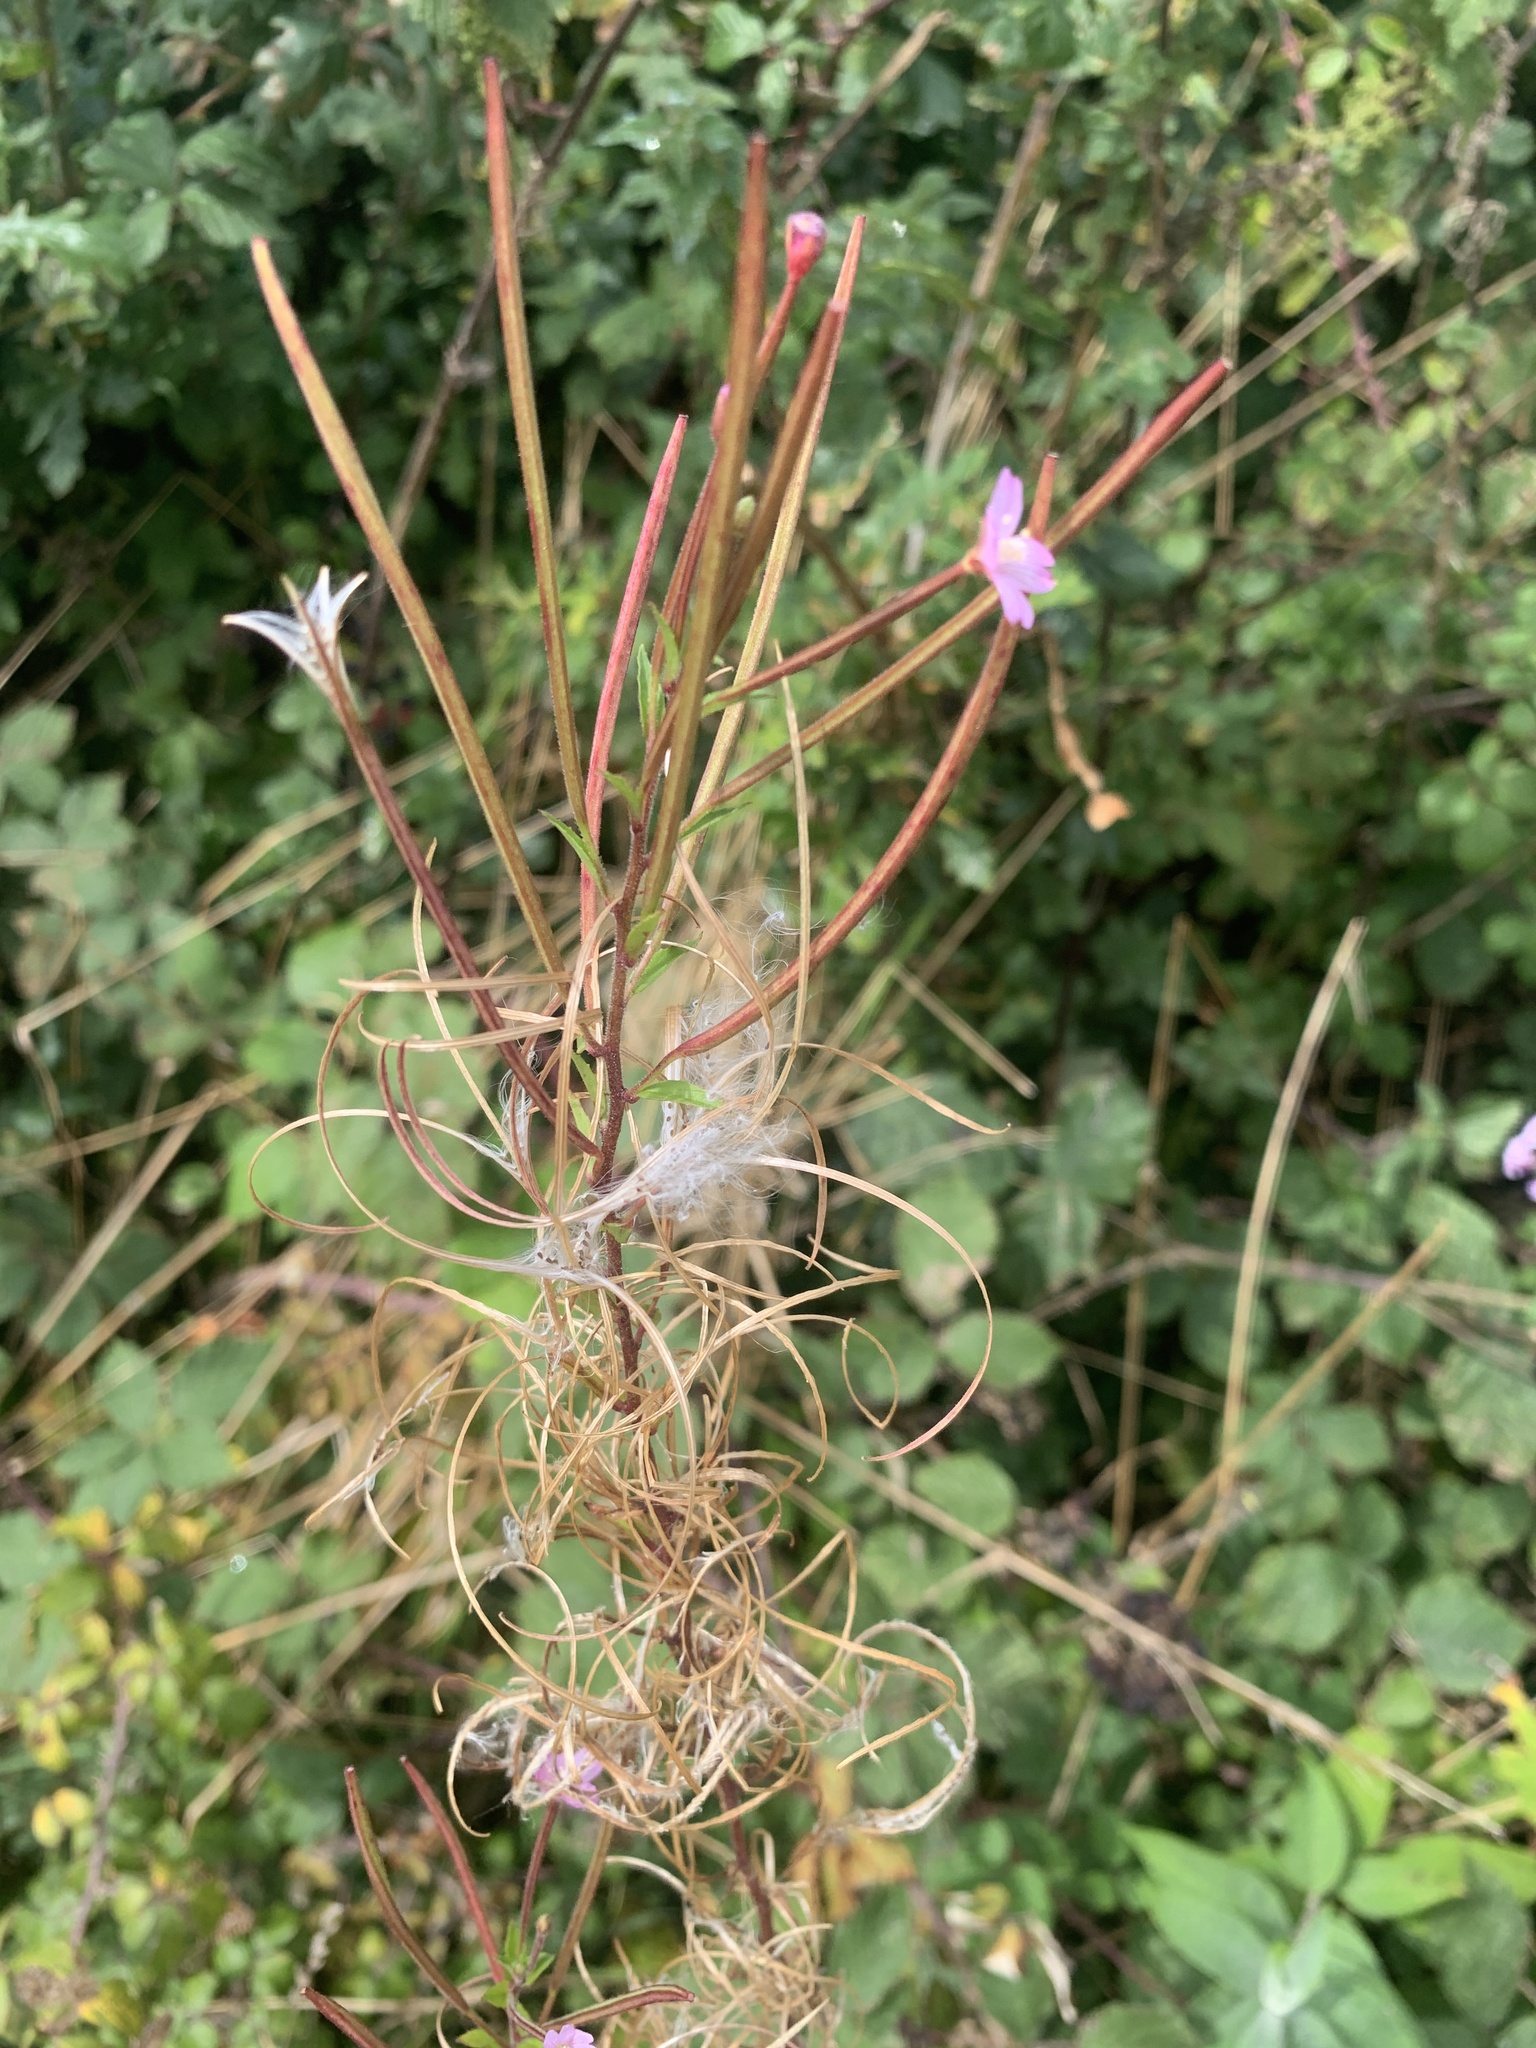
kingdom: Plantae
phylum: Tracheophyta
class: Magnoliopsida
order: Myrtales
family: Onagraceae
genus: Epilobium
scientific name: Epilobium hirsutum
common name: Great willowherb
